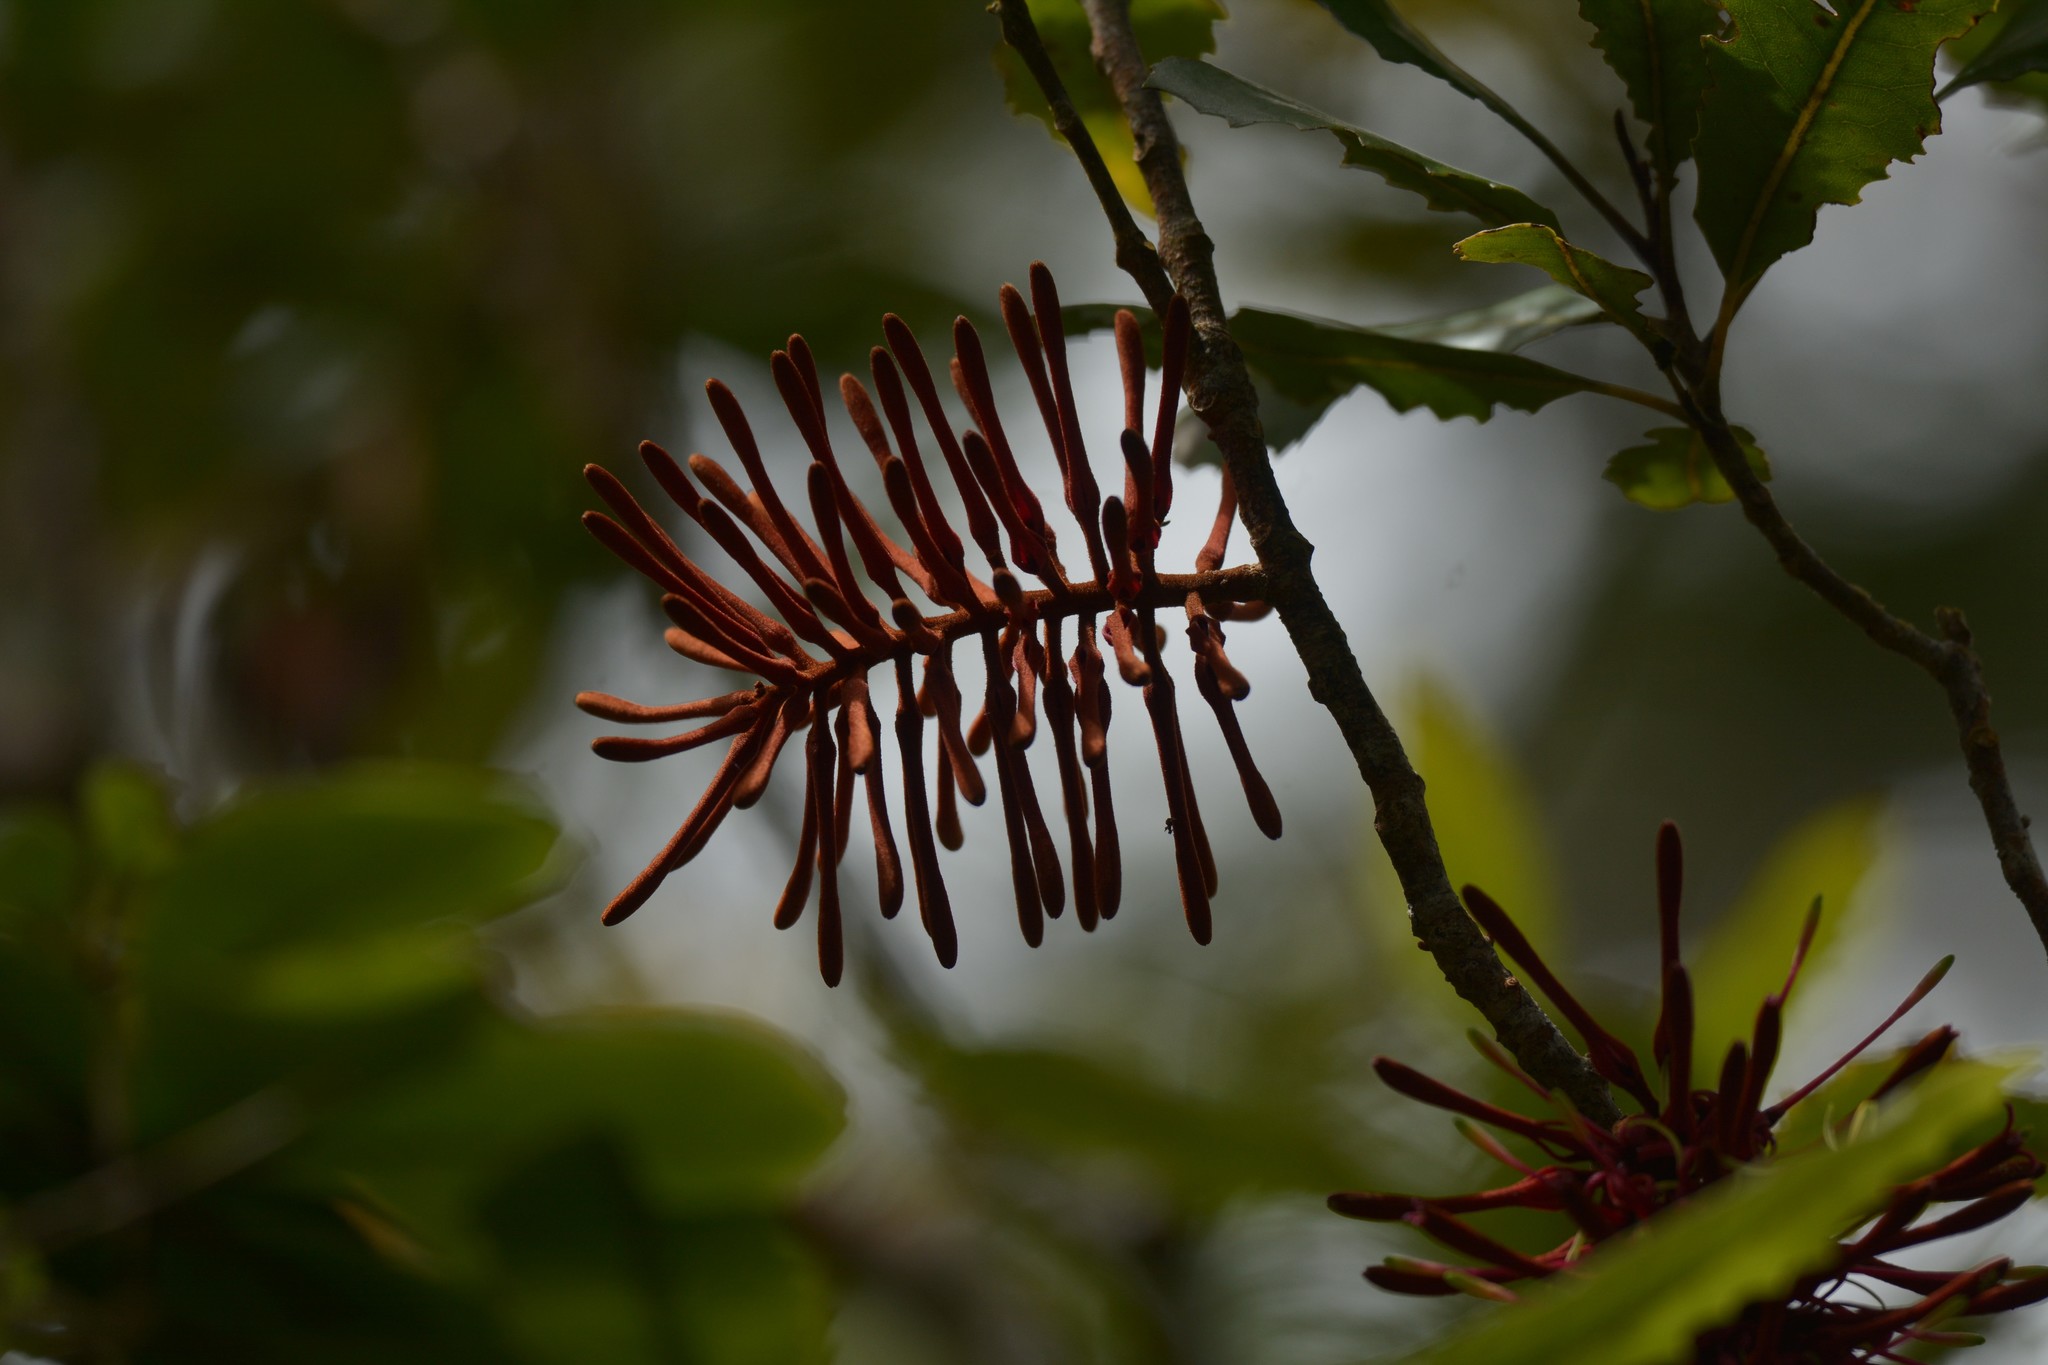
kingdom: Plantae
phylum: Tracheophyta
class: Magnoliopsida
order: Proteales
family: Proteaceae
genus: Knightia
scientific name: Knightia excelsa
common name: New zealand-honeysuckle
